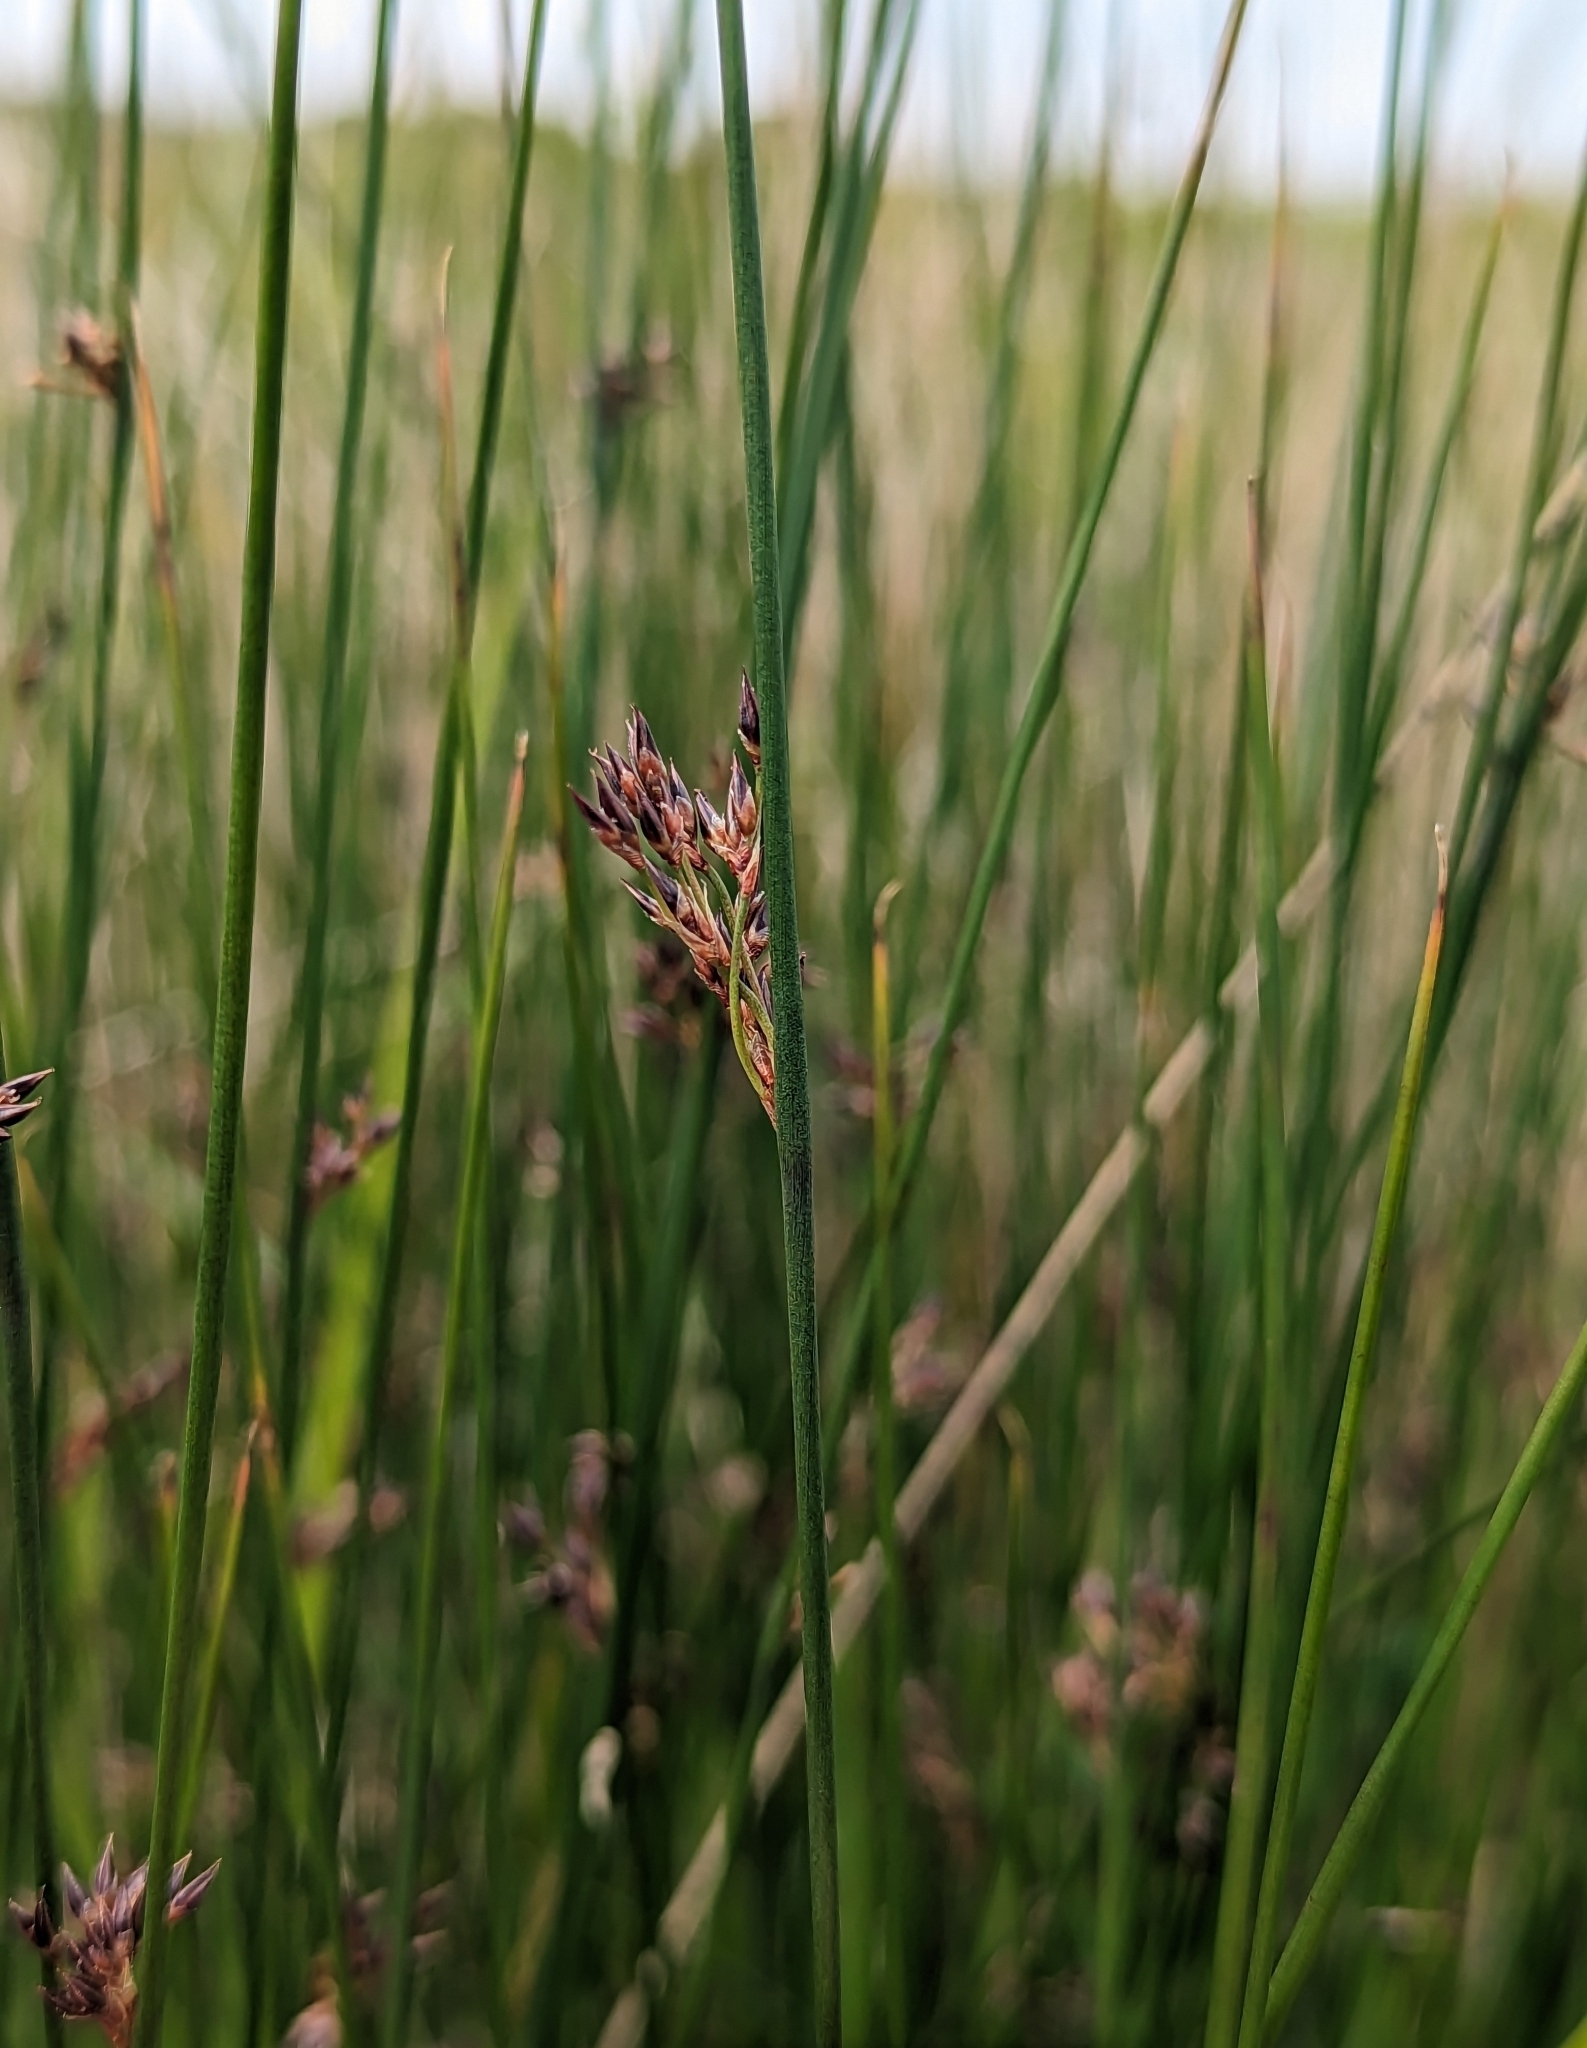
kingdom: Plantae
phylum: Tracheophyta
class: Liliopsida
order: Poales
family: Juncaceae
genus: Juncus
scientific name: Juncus balticus
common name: Baltic rush
